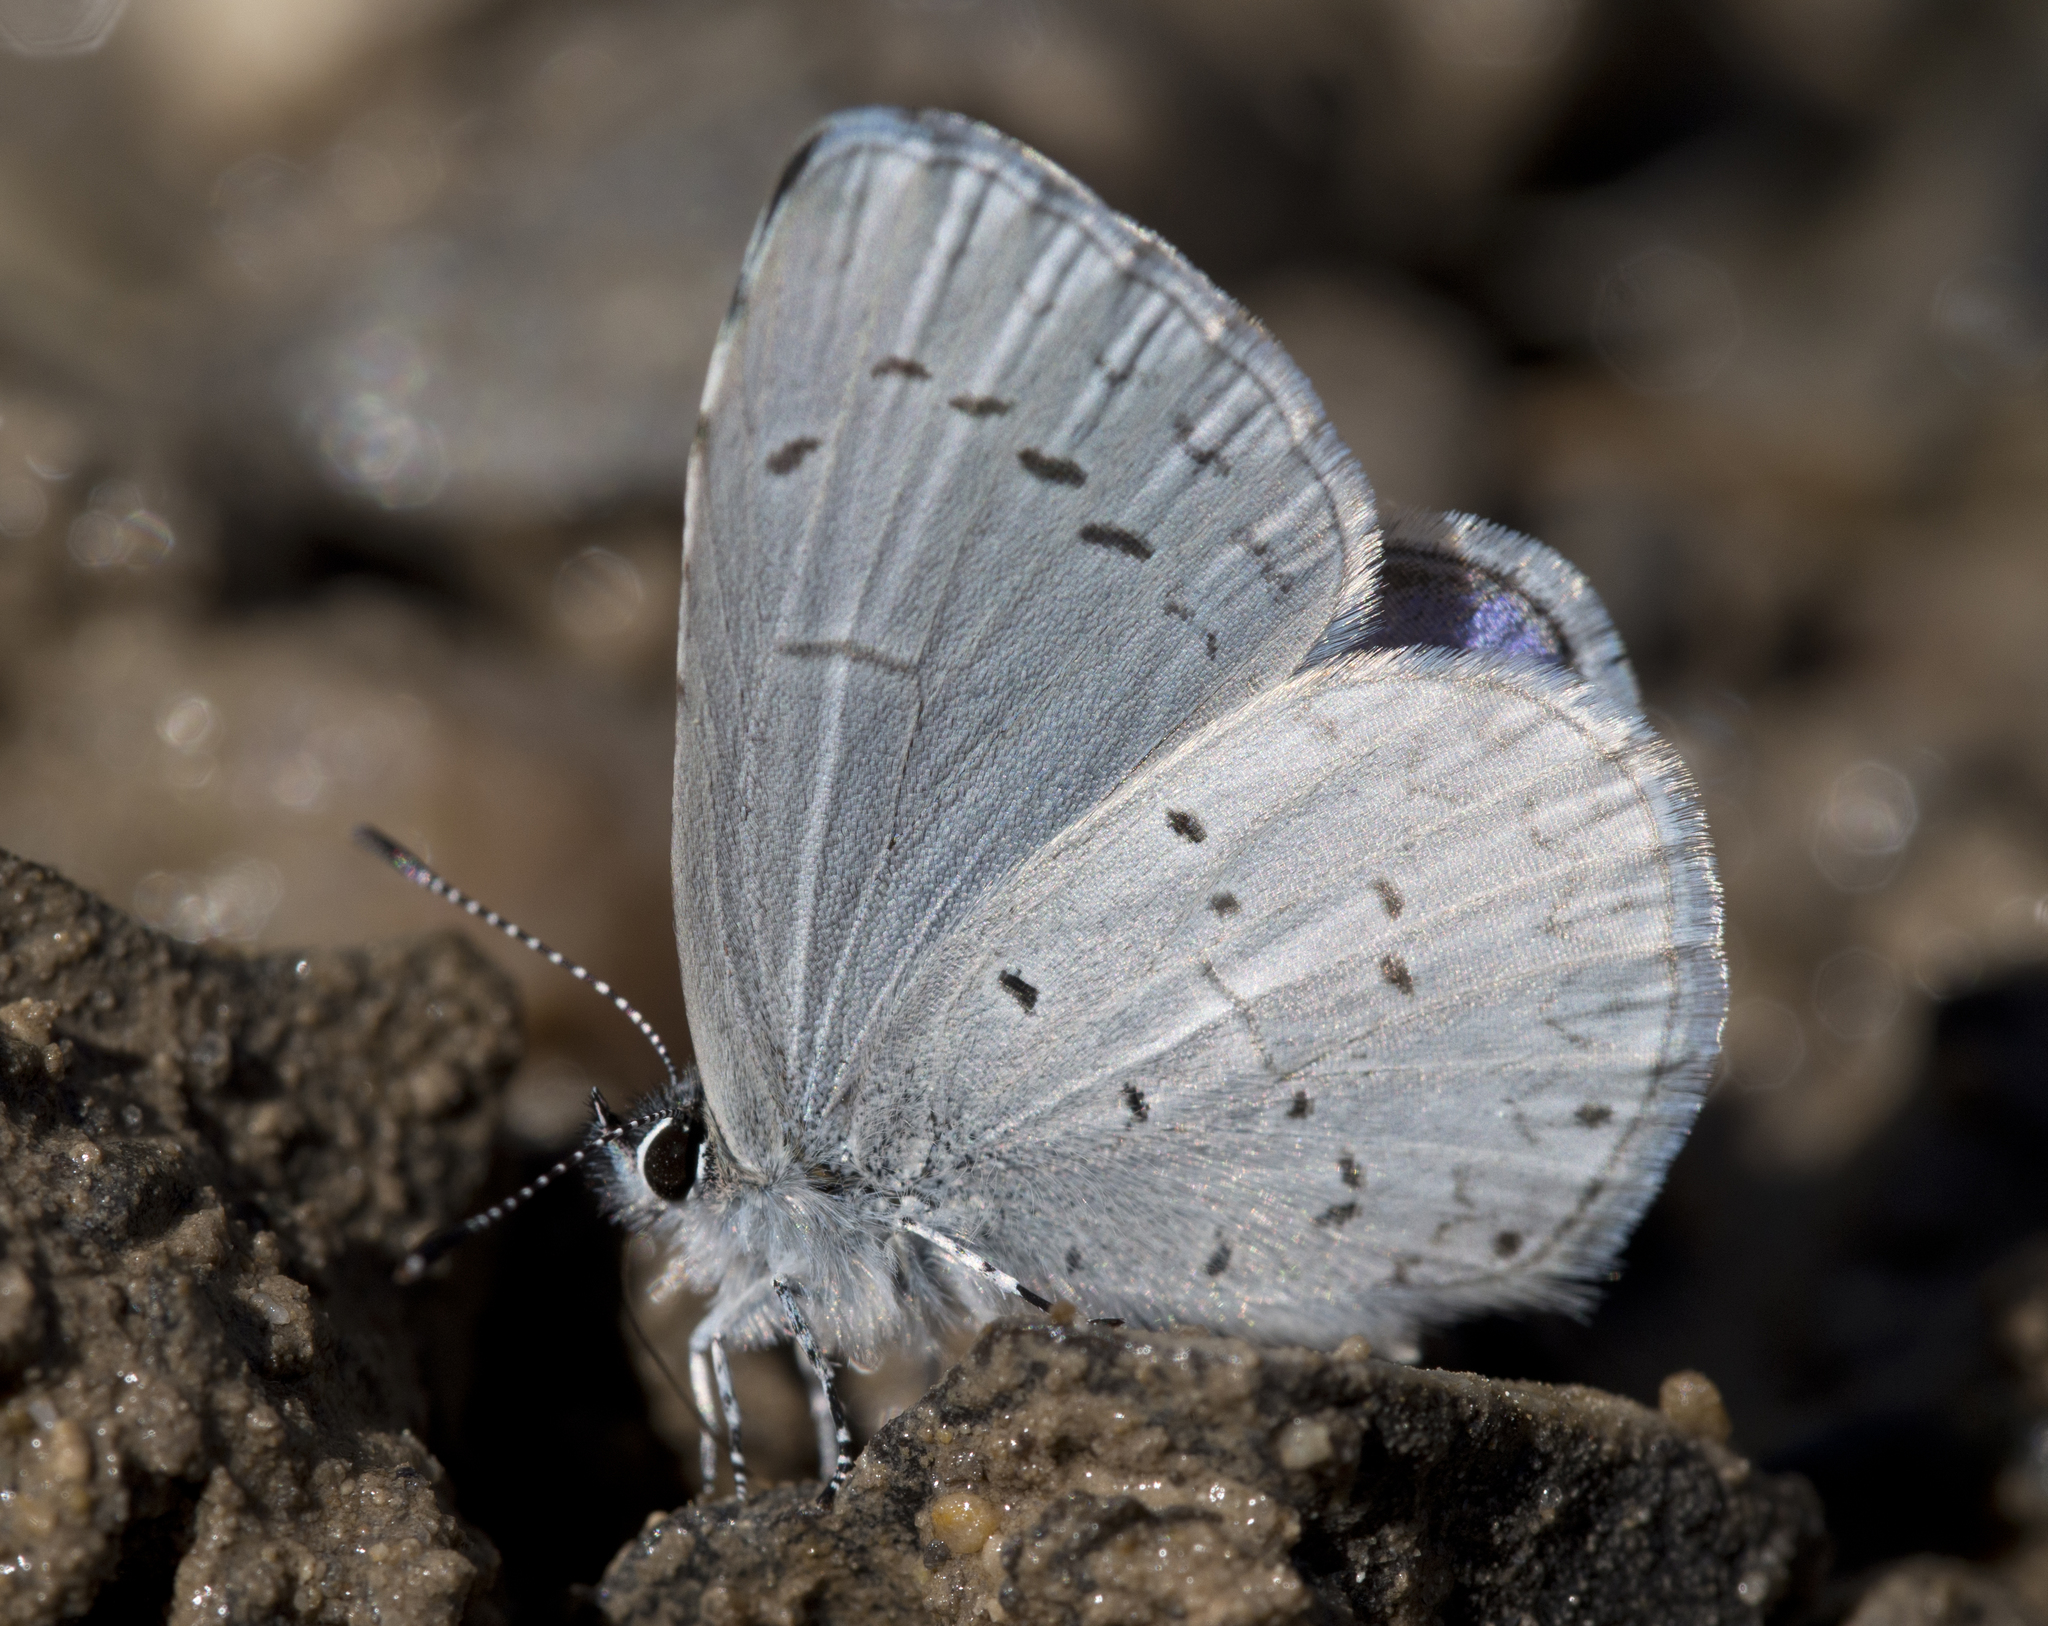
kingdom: Animalia
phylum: Arthropoda
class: Insecta
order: Lepidoptera
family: Lycaenidae
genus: Celastrina
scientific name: Celastrina ladon
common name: Spring azure
